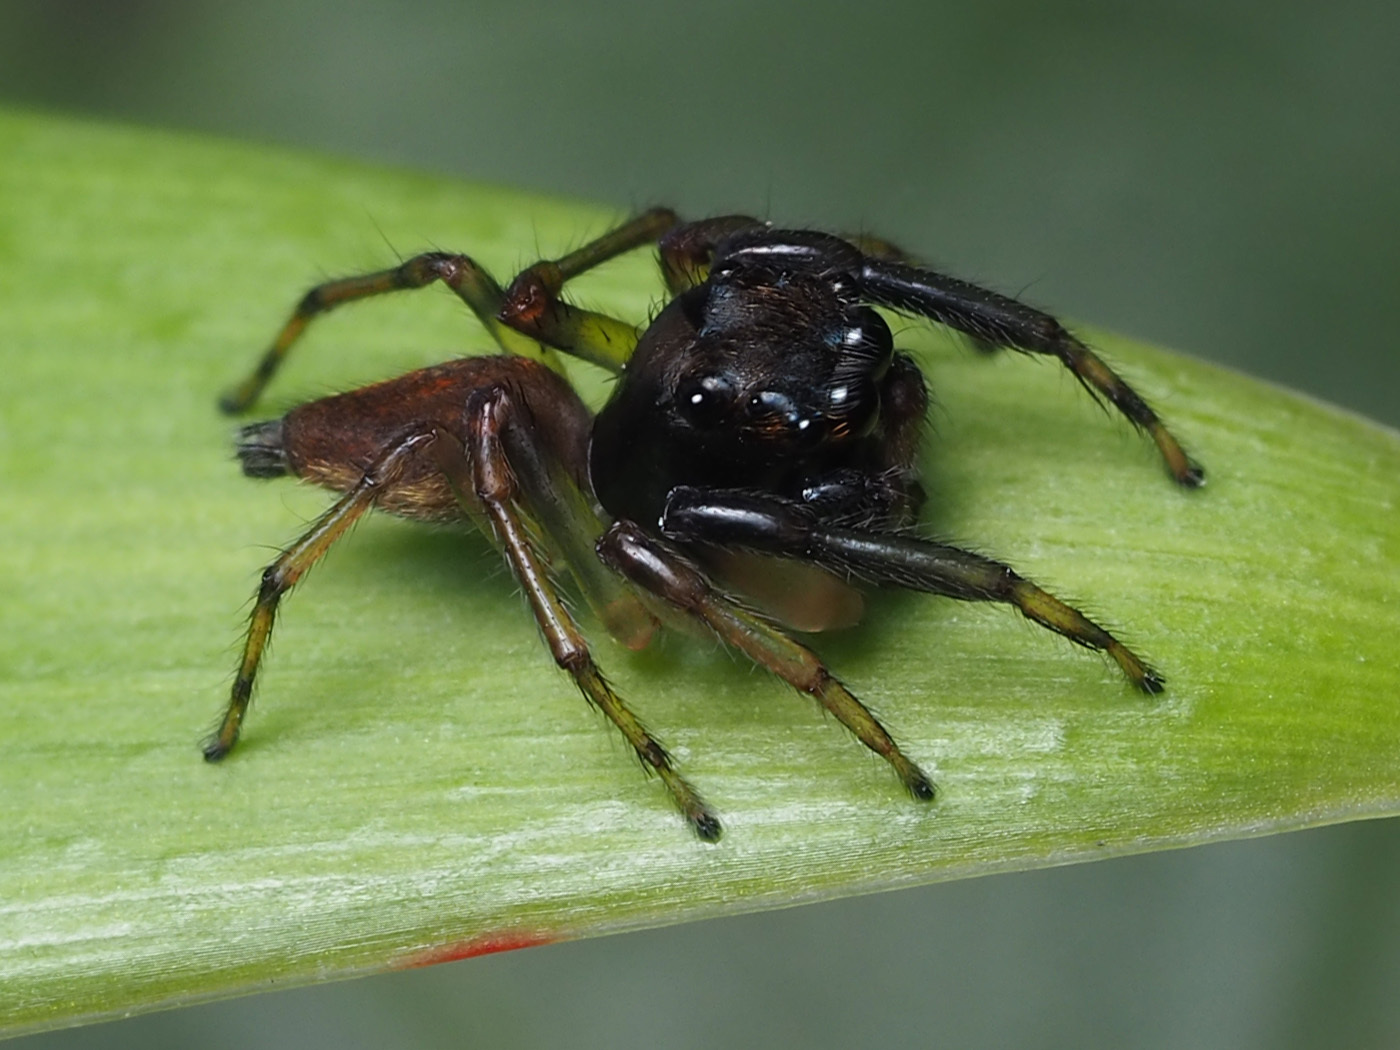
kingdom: Animalia
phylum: Arthropoda
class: Arachnida
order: Araneae
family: Salticidae
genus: Amycus
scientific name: Amycus albipalpus
